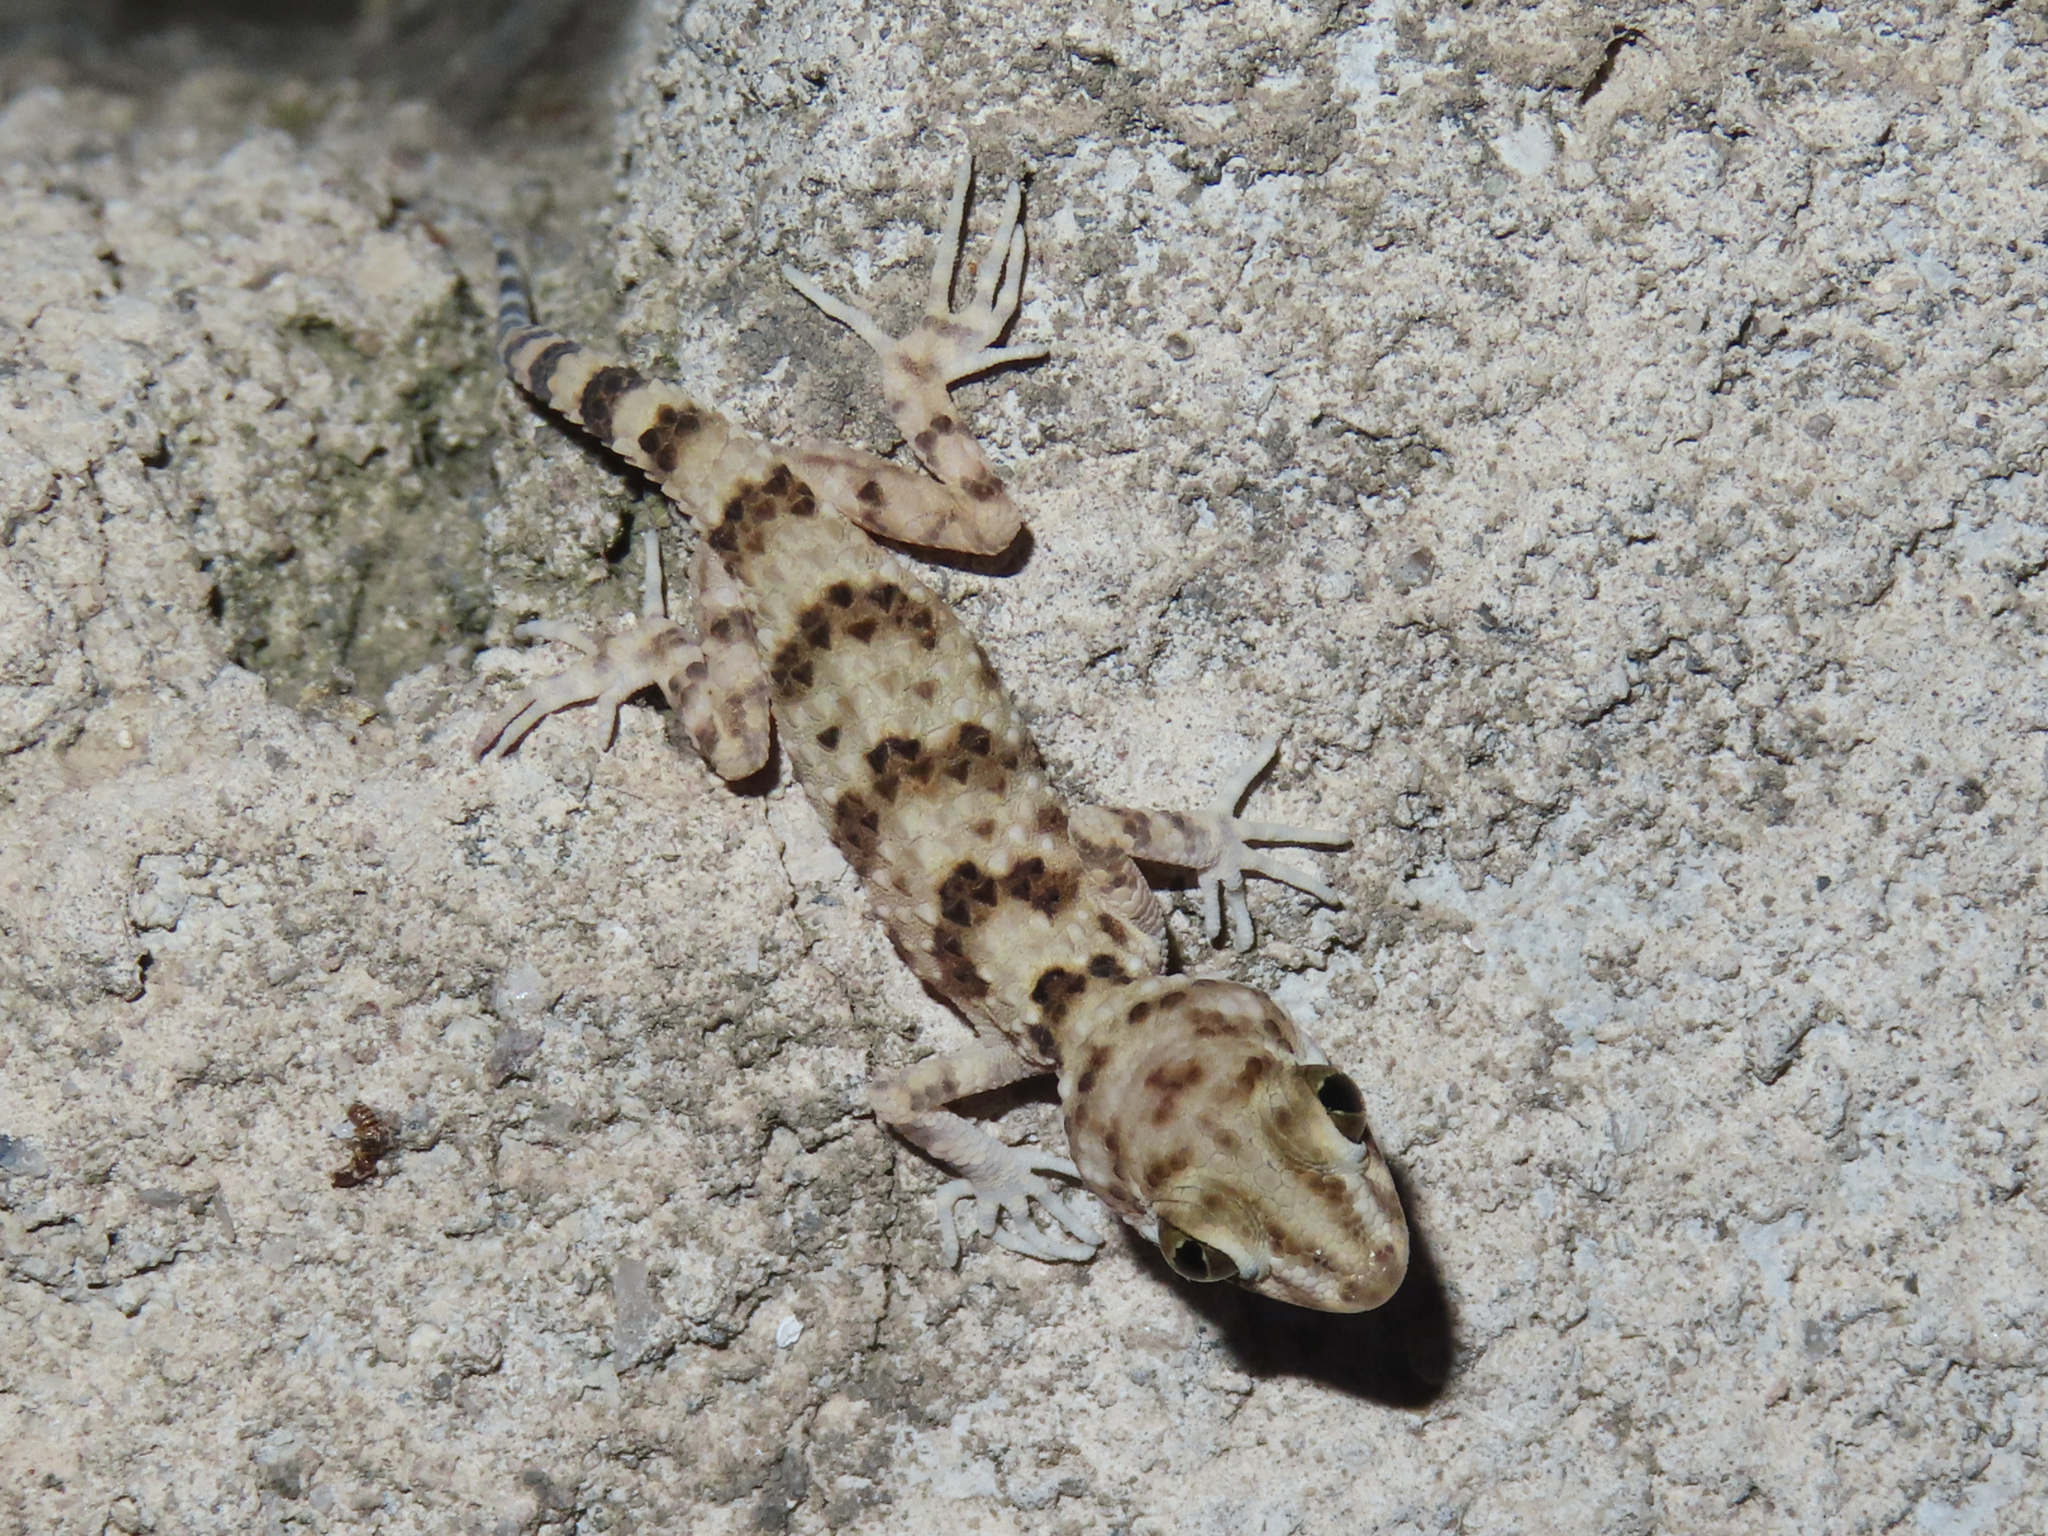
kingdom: Animalia
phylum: Chordata
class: Squamata
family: Gekkonidae
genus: Tenuidactylus
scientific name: Tenuidactylus caspius
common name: Caspian bent-toed gecko
